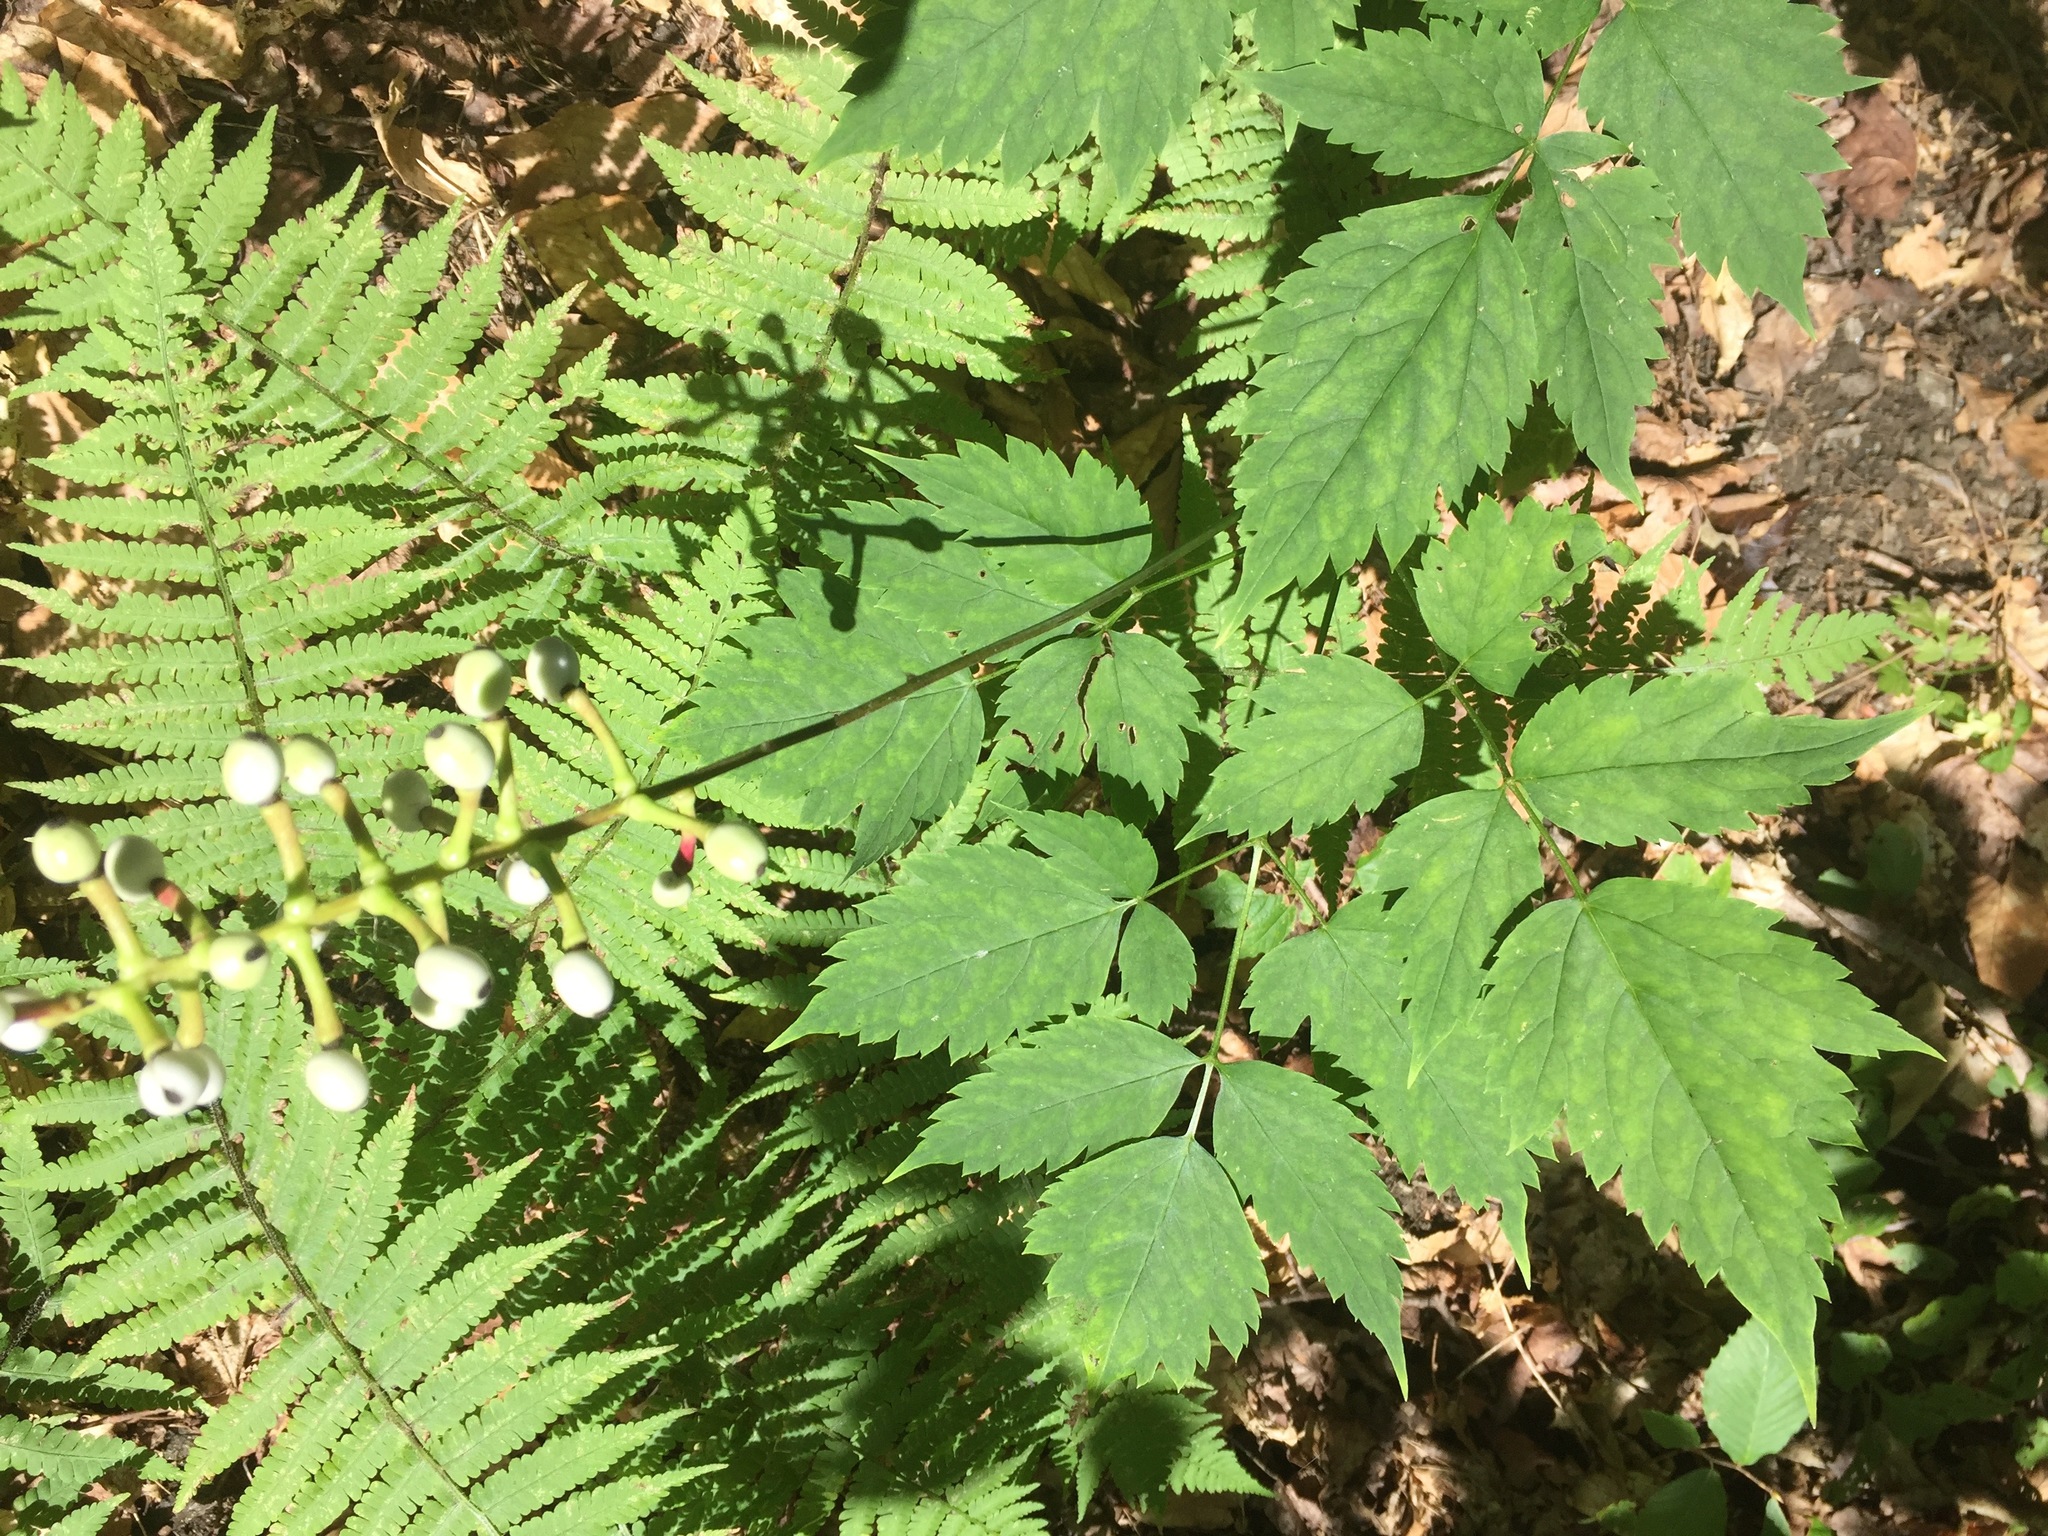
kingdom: Plantae
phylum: Tracheophyta
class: Magnoliopsida
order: Ranunculales
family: Ranunculaceae
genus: Actaea
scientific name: Actaea pachypoda
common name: Doll's-eyes
